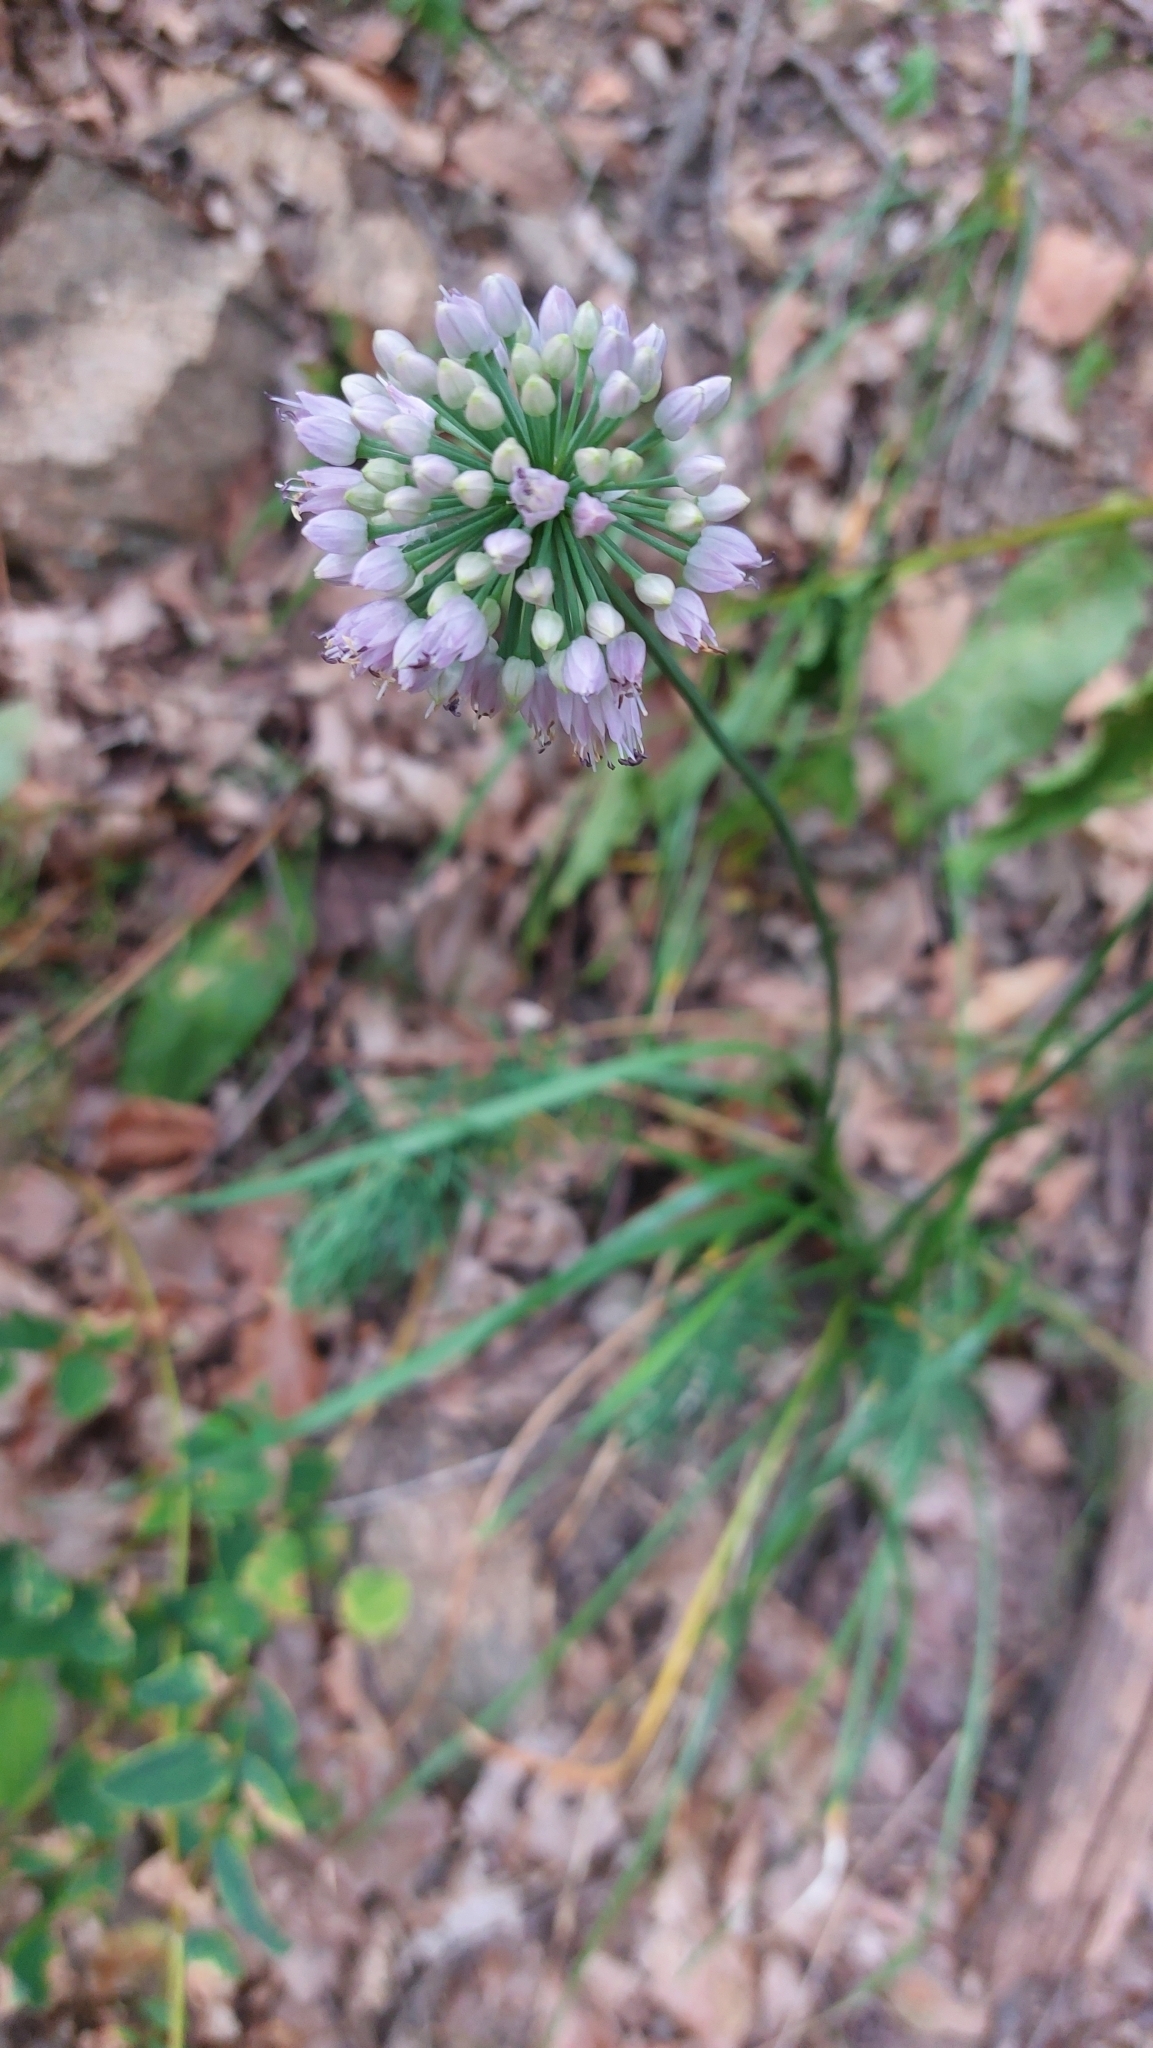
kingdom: Plantae
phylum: Tracheophyta
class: Liliopsida
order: Asparagales
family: Amaryllidaceae
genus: Allium
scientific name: Allium lusitanicum
